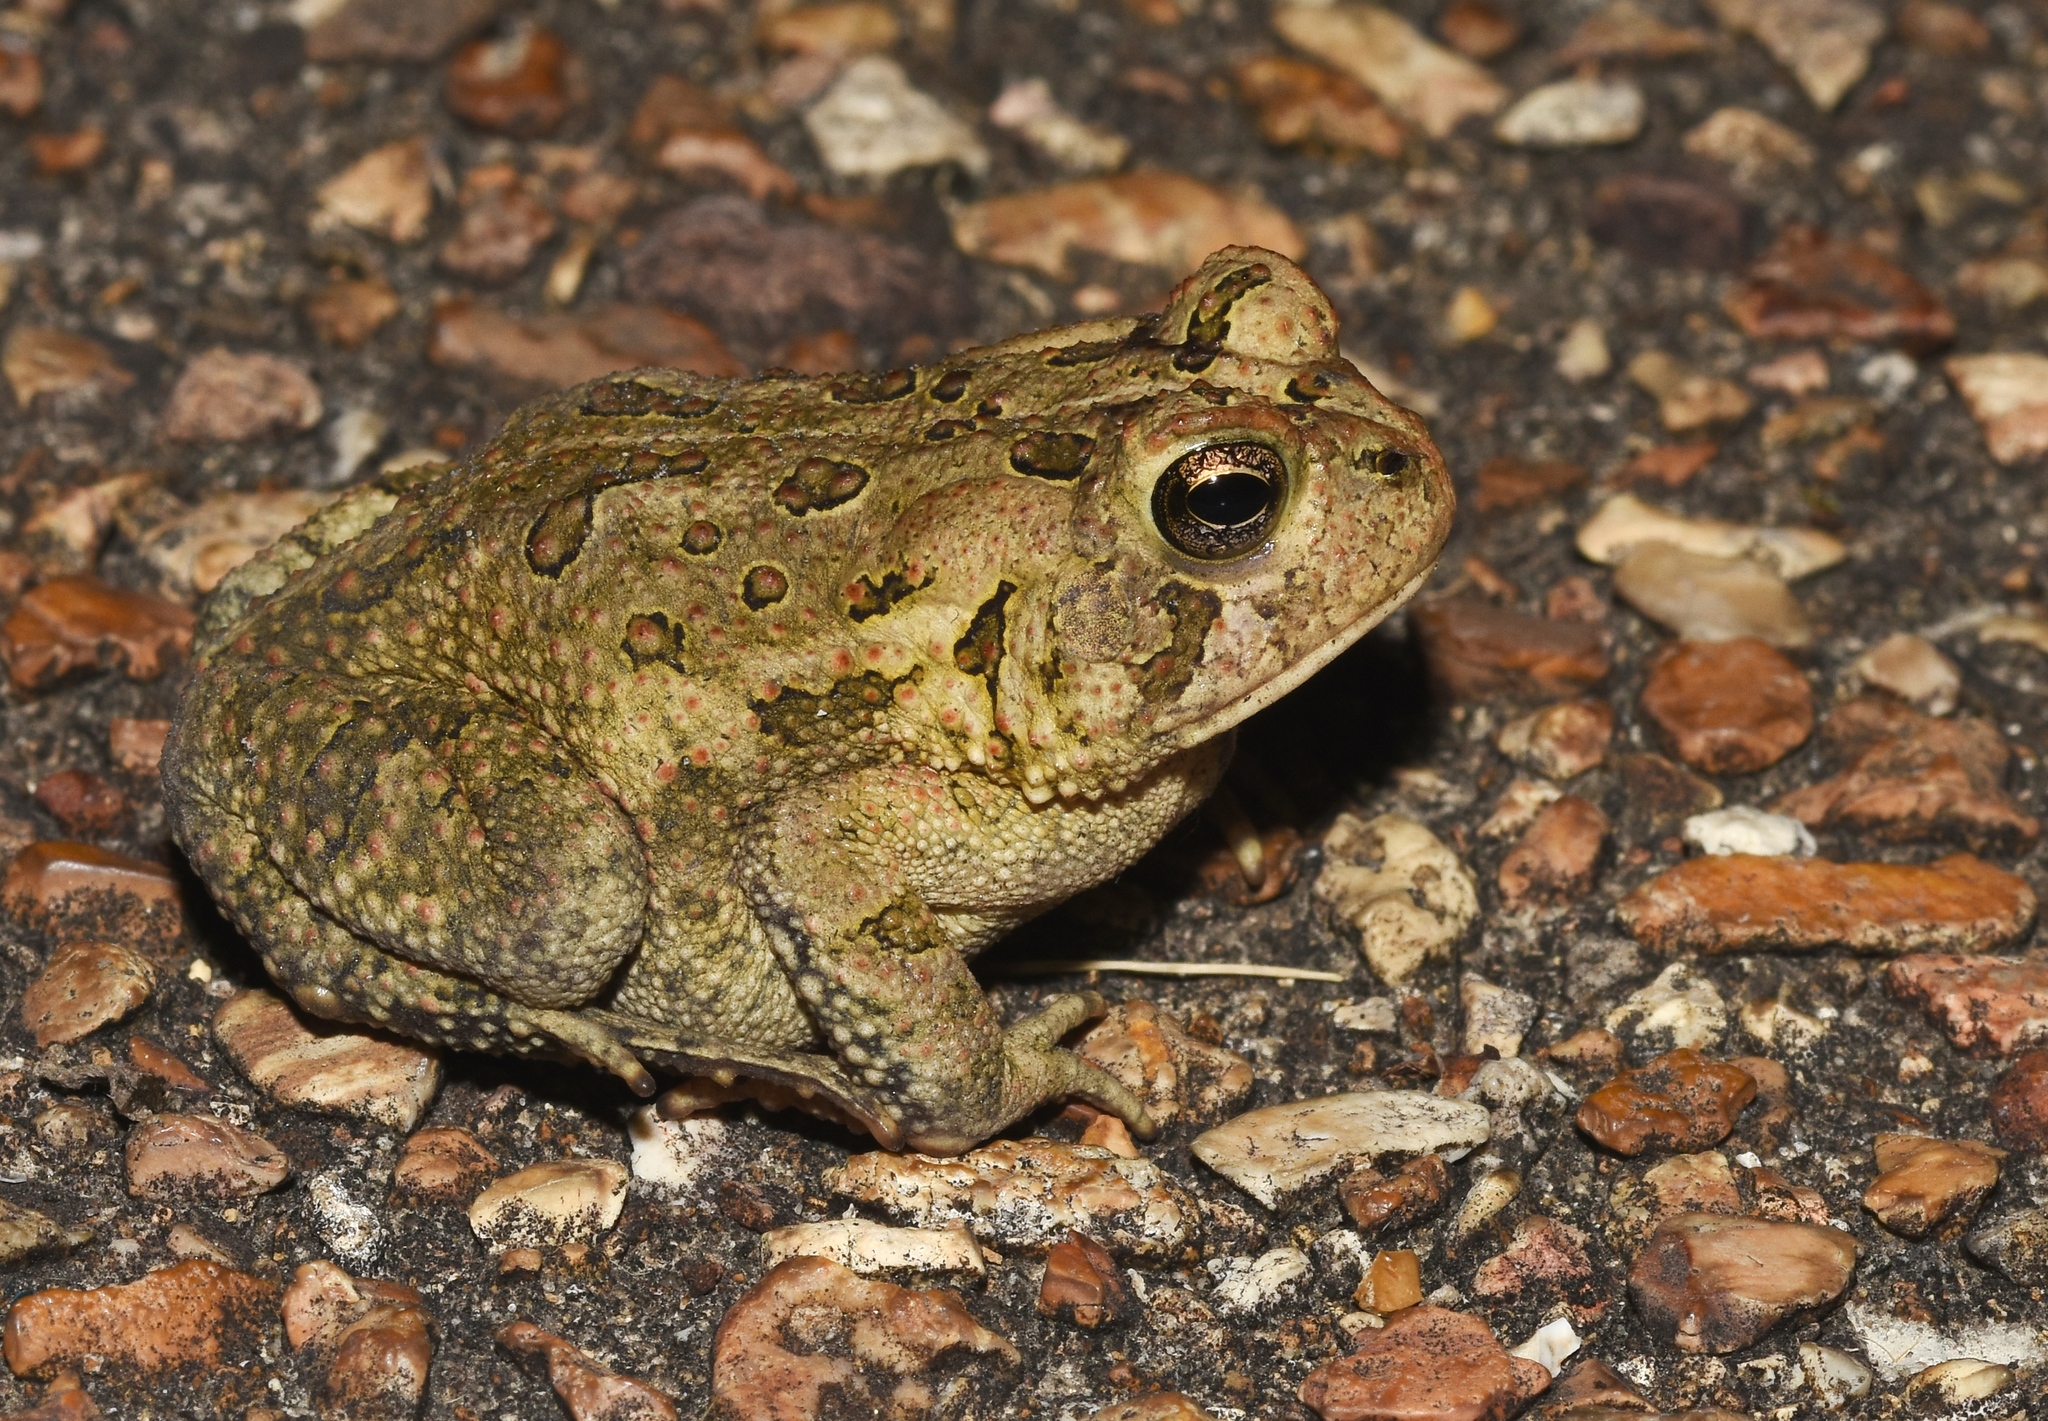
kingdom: Animalia
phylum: Chordata
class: Amphibia
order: Anura
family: Bufonidae
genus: Anaxyrus
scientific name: Anaxyrus fowleri
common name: Fowler's toad
